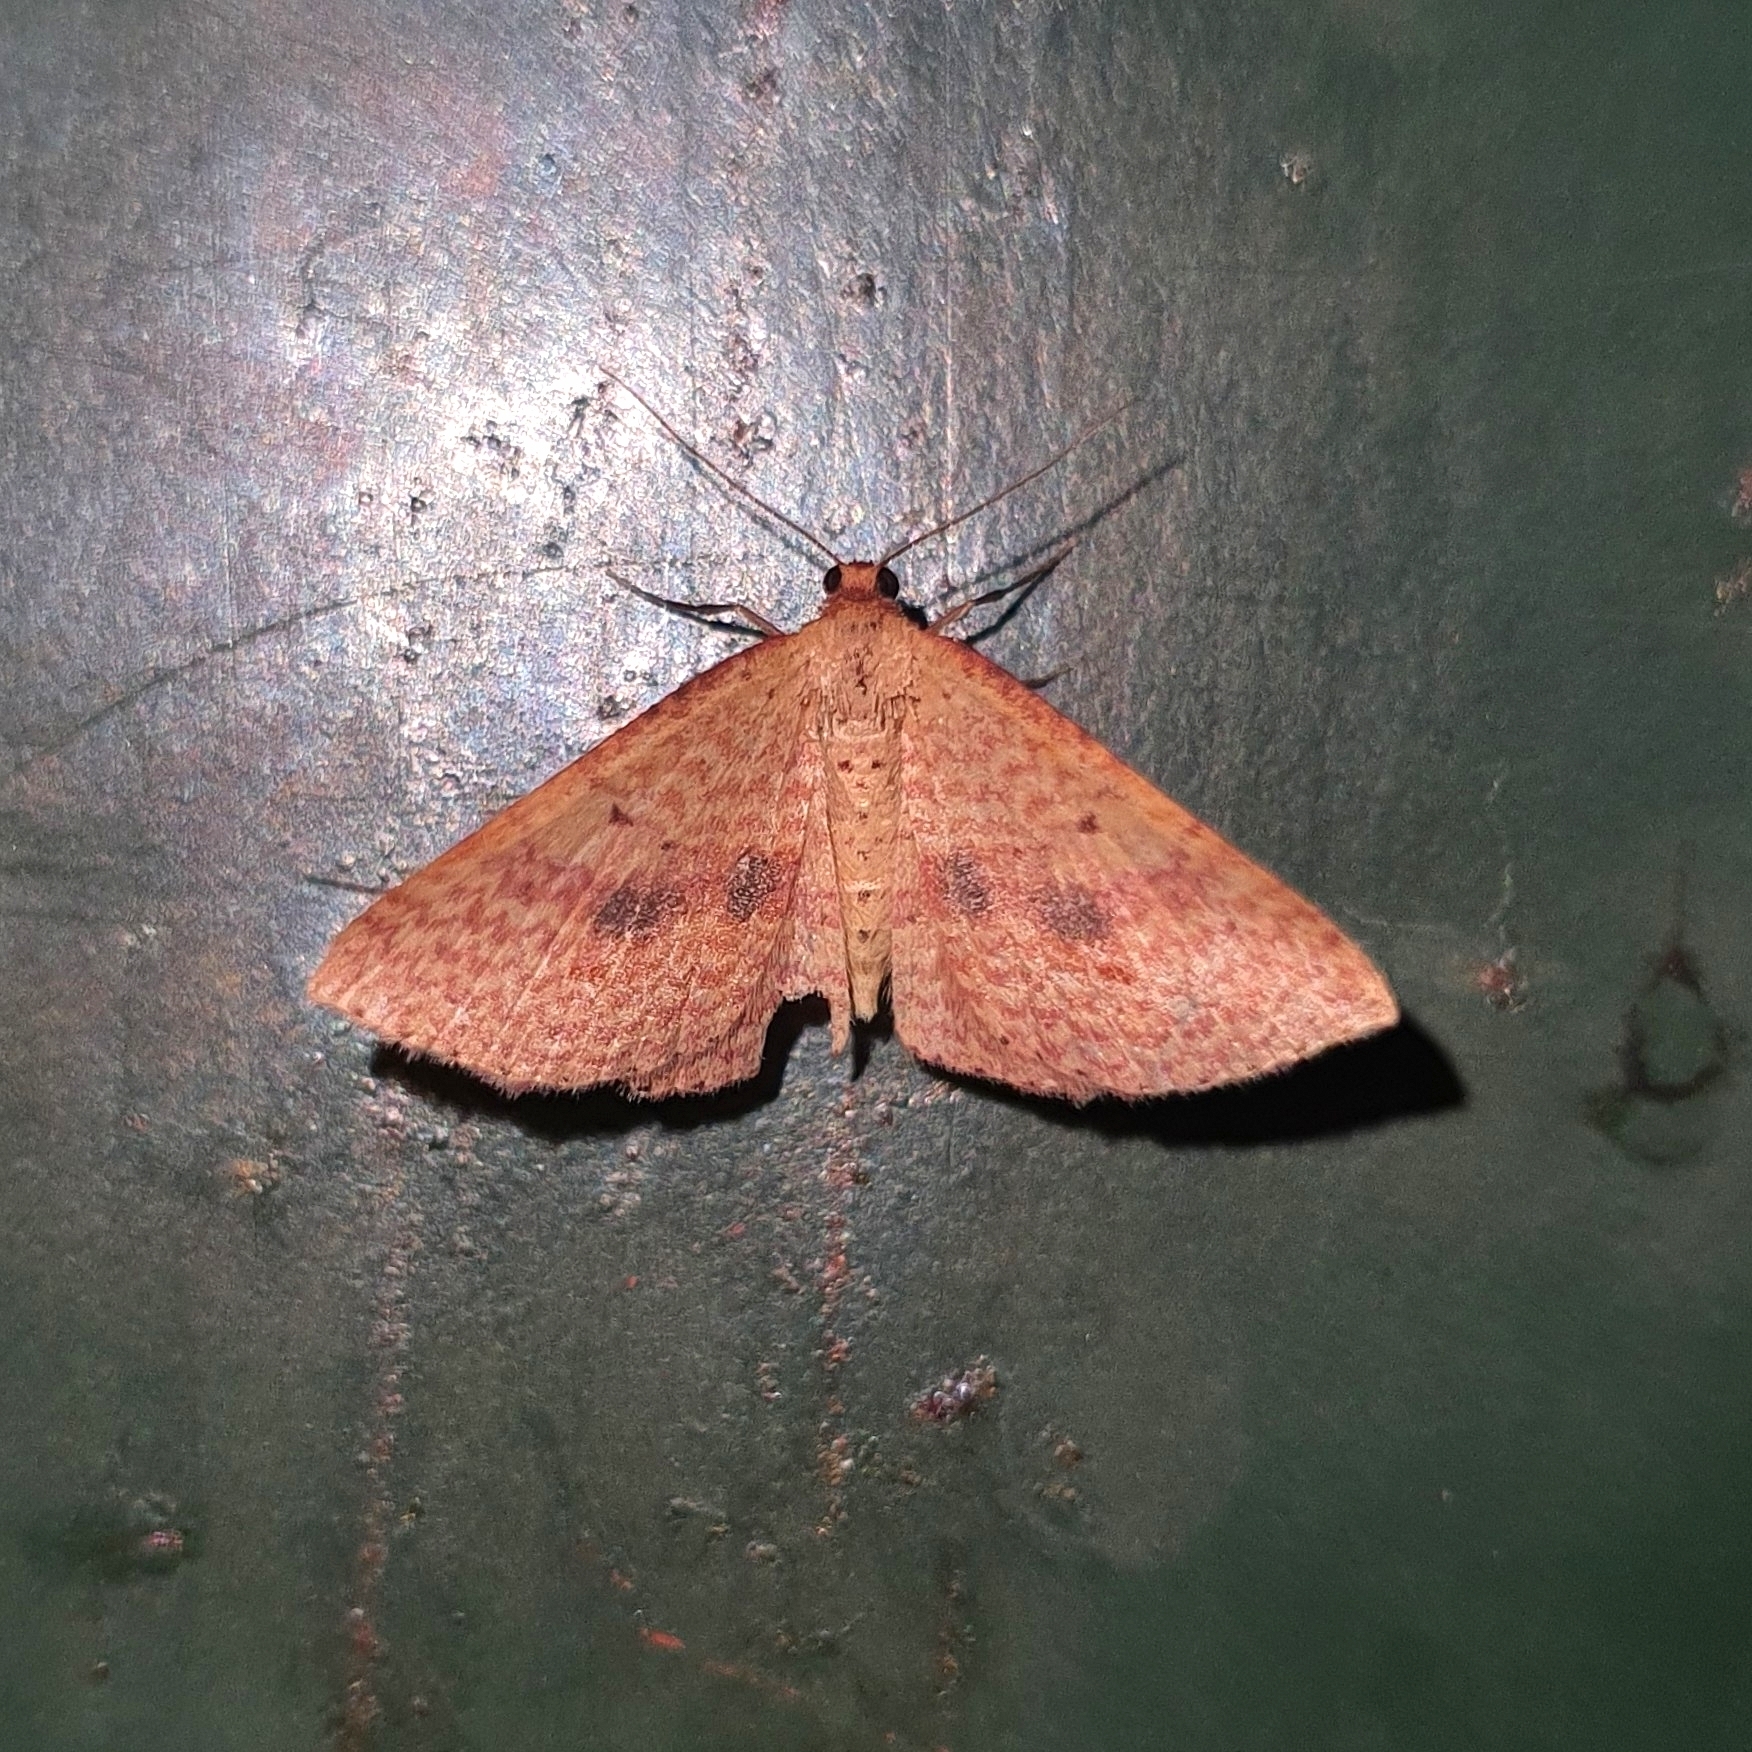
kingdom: Animalia
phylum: Arthropoda
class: Insecta
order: Lepidoptera
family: Geometridae
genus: Epicyme
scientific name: Epicyme rubropunctaria
